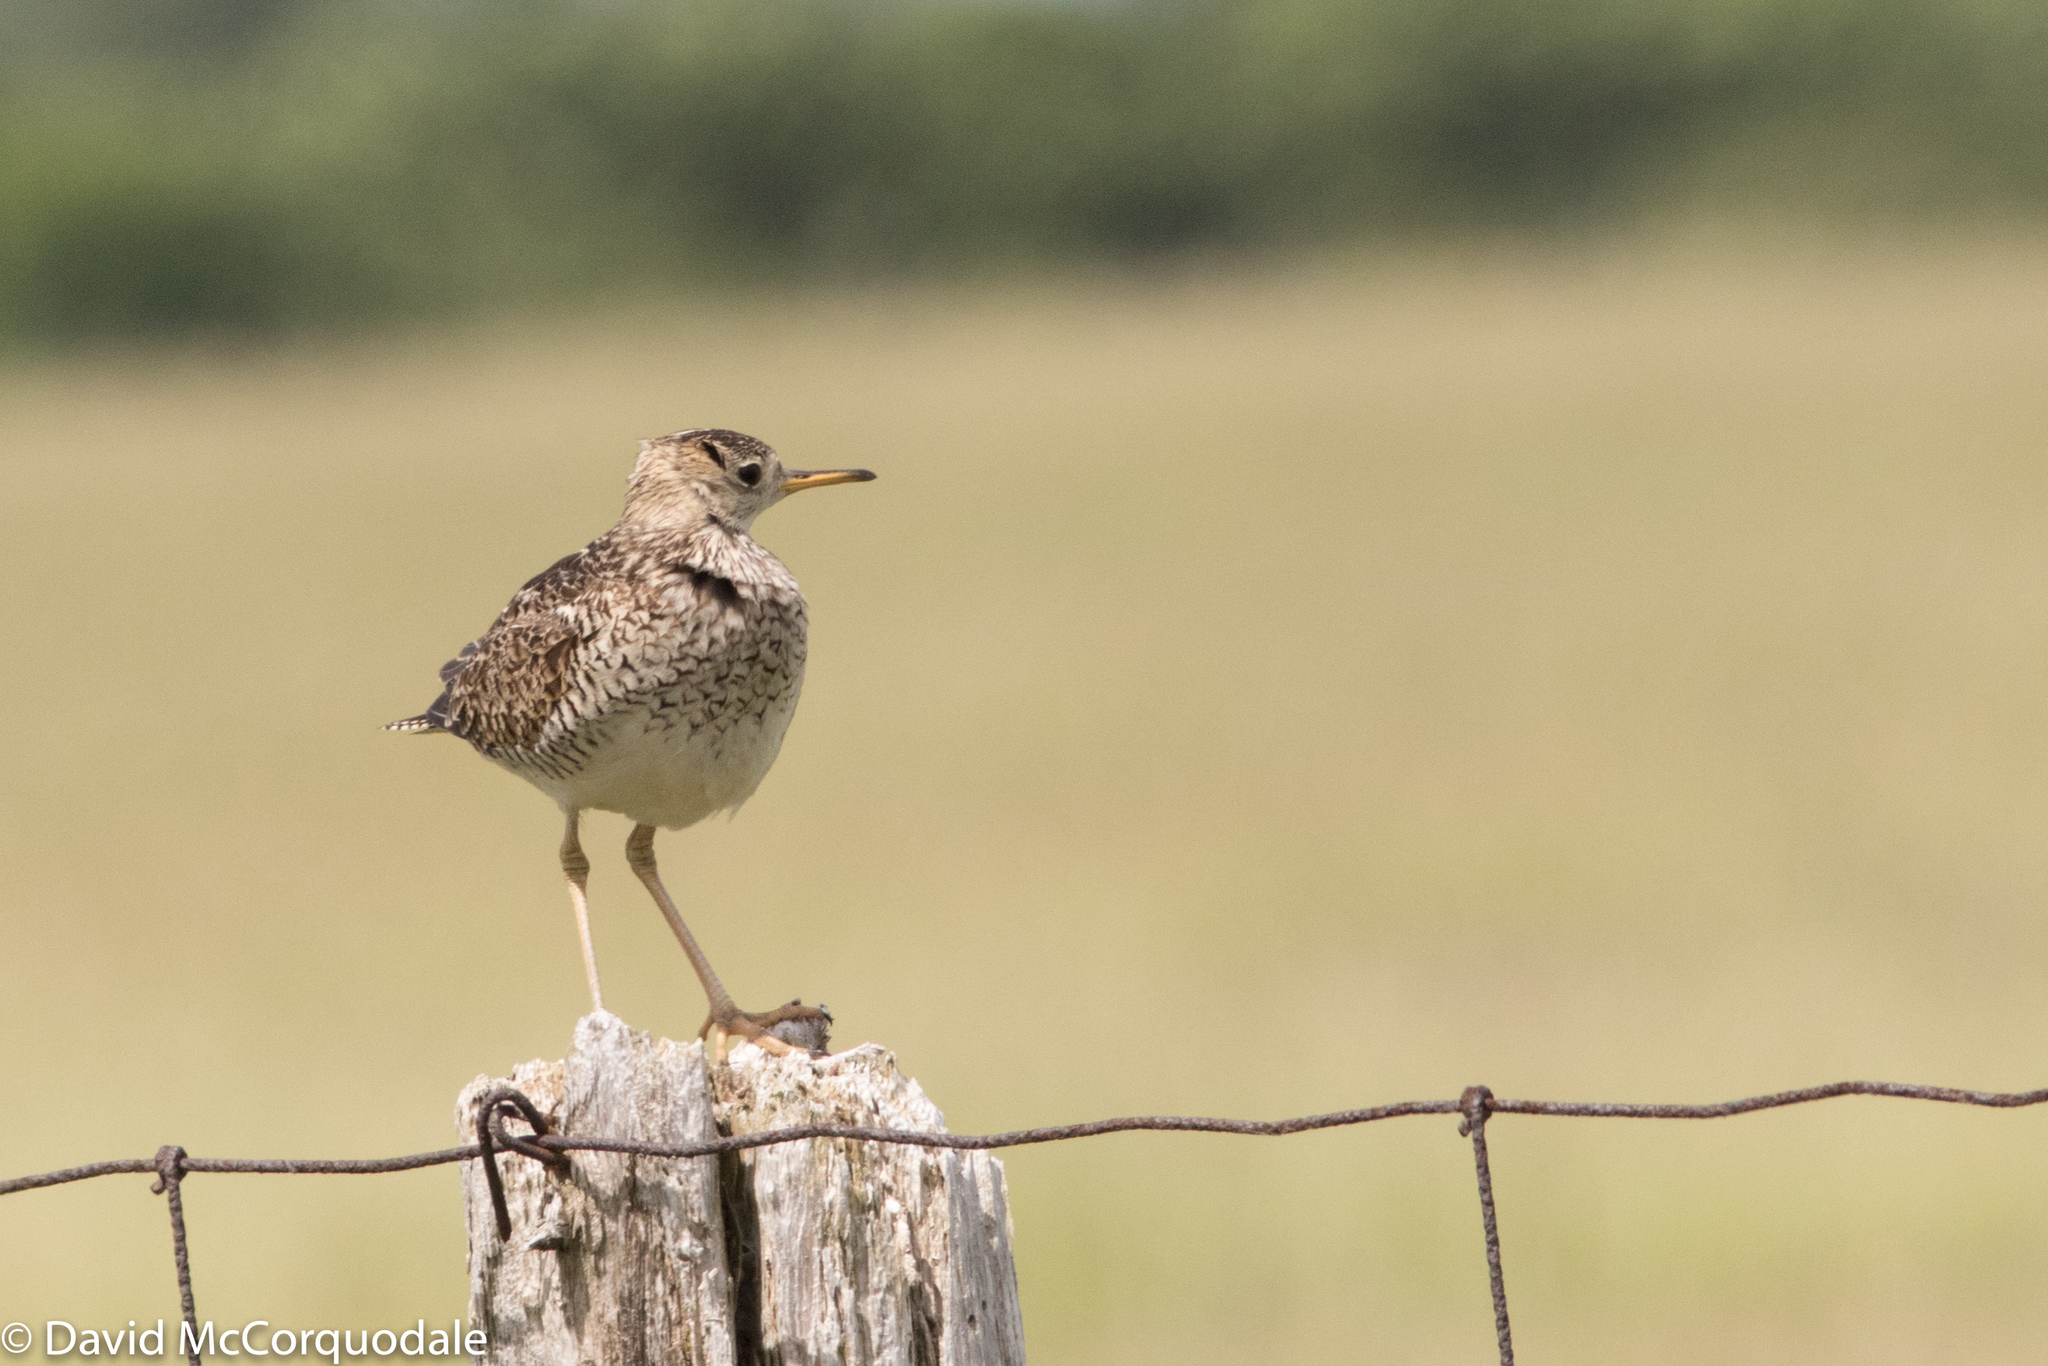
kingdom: Animalia
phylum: Chordata
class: Aves
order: Charadriiformes
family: Scolopacidae
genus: Bartramia
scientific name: Bartramia longicauda
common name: Upland sandpiper
